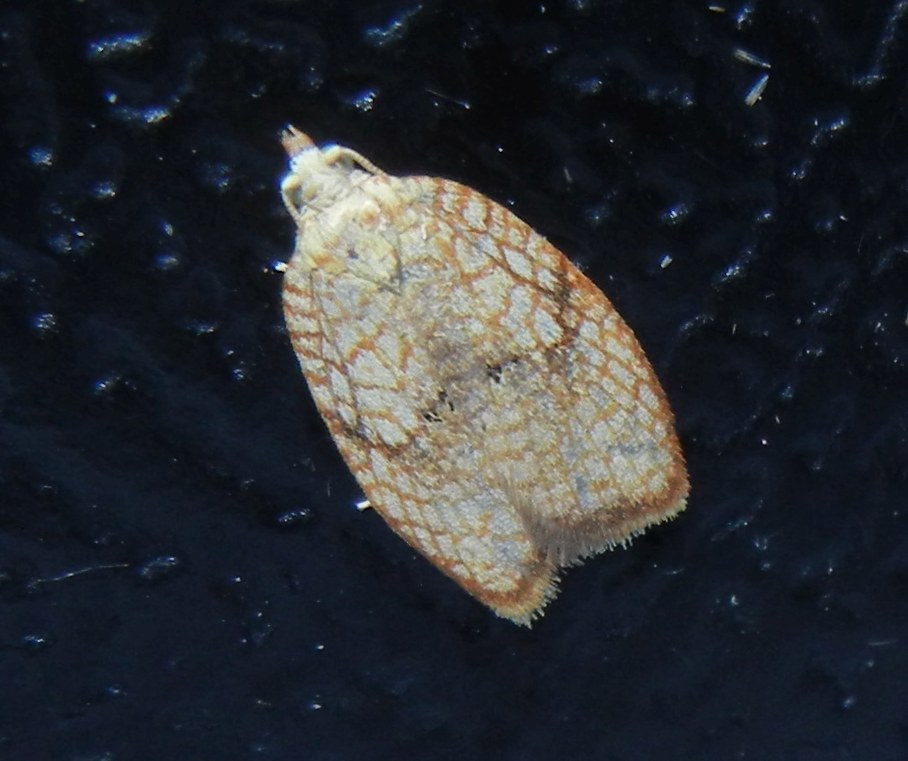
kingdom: Animalia
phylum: Arthropoda
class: Insecta
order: Lepidoptera
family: Tortricidae
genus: Acleris
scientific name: Acleris forsskaleana
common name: Maple button
